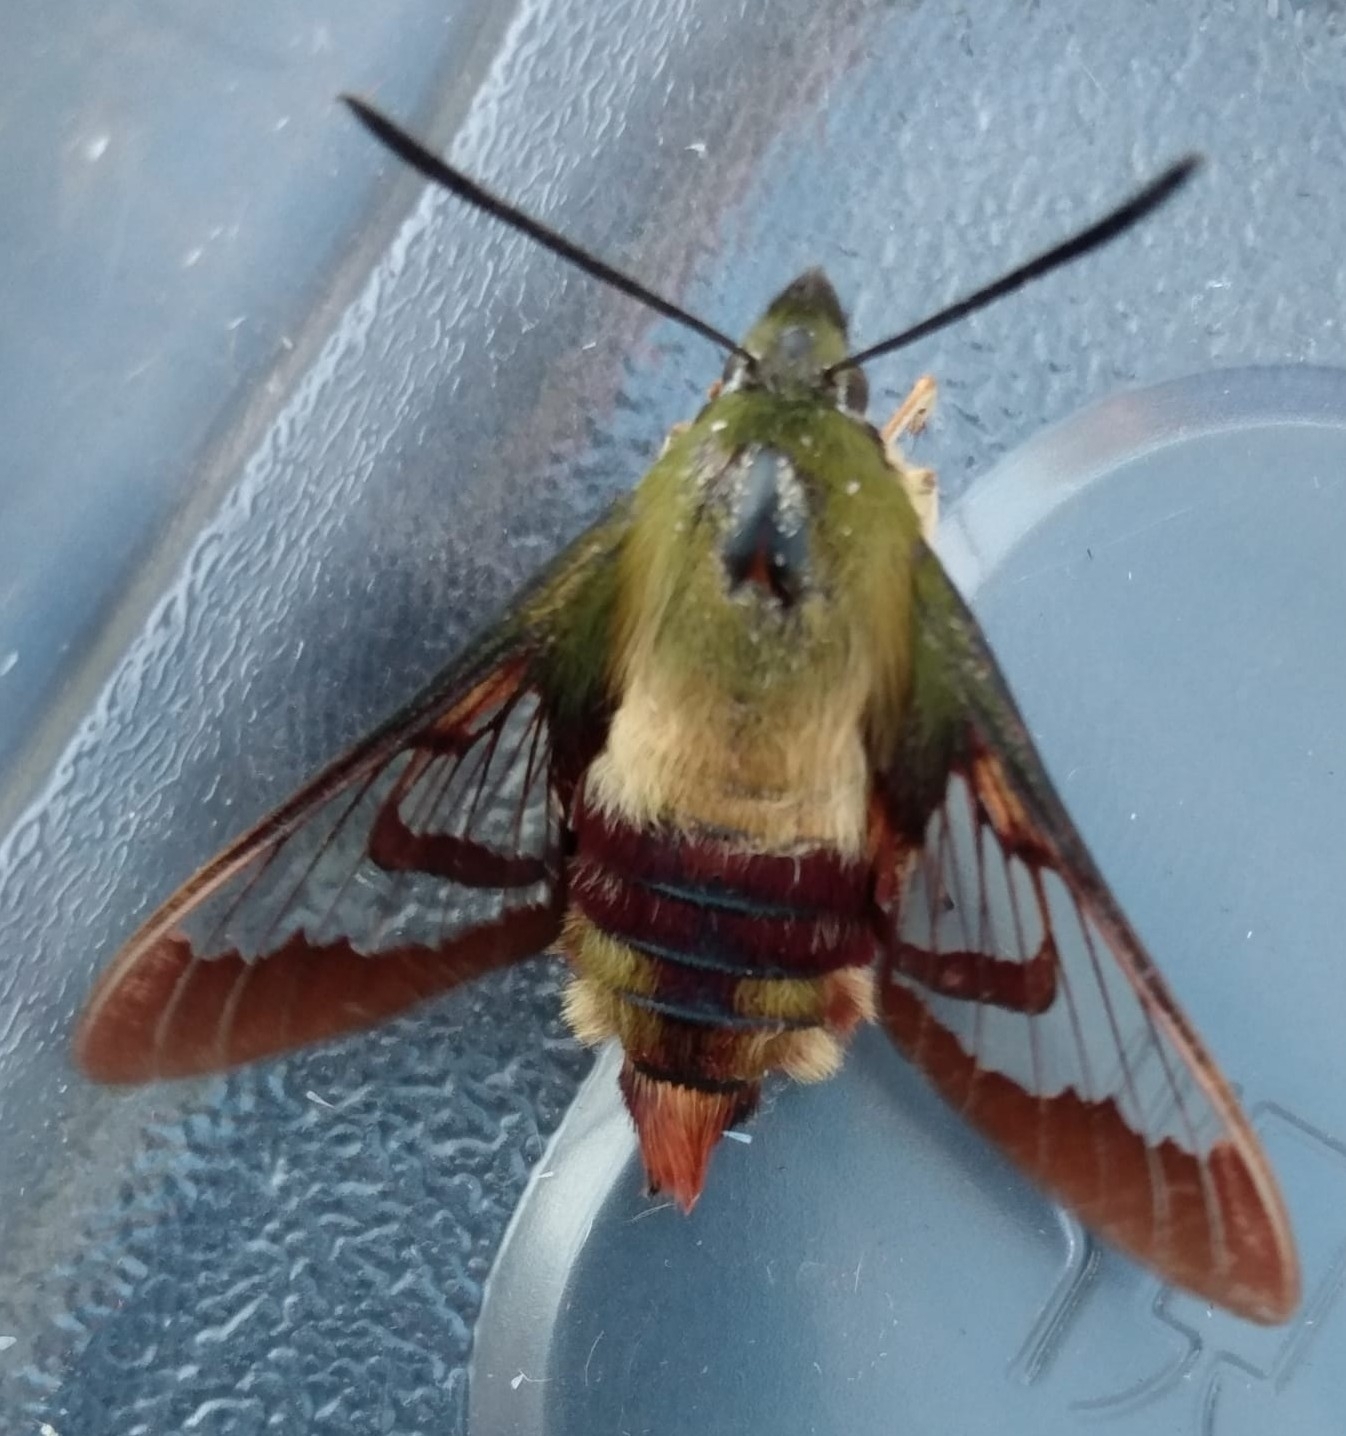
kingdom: Animalia
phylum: Arthropoda
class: Insecta
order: Lepidoptera
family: Sphingidae
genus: Hemaris
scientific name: Hemaris thysbe
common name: Common clear-wing
